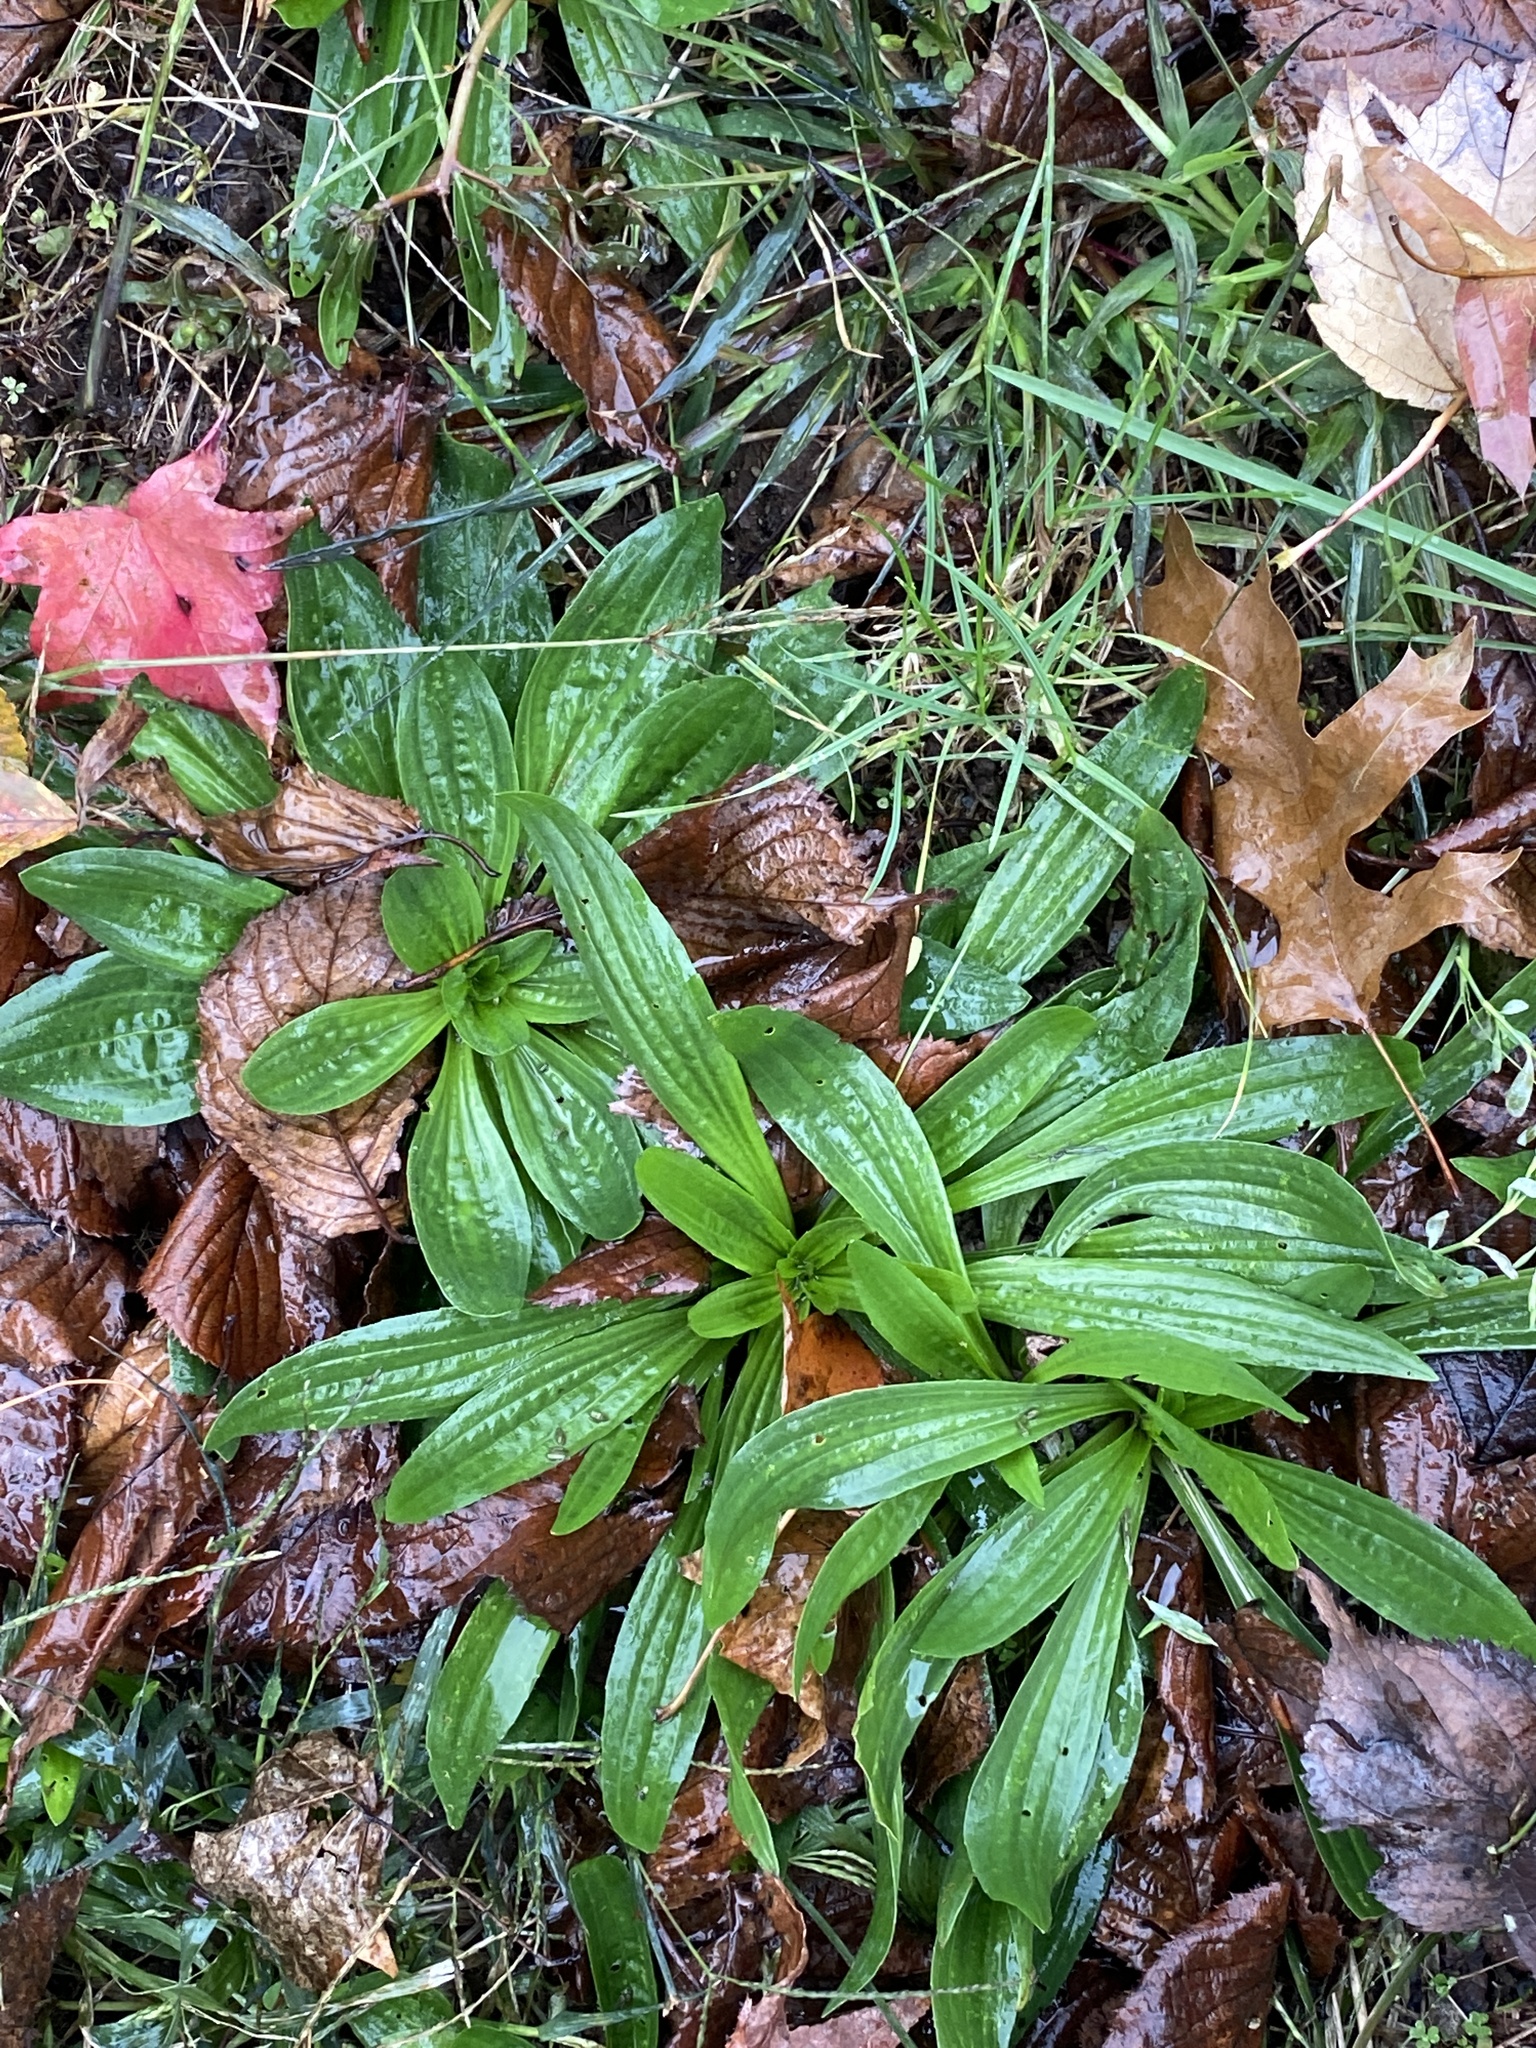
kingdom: Plantae
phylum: Tracheophyta
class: Magnoliopsida
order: Lamiales
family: Plantaginaceae
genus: Plantago
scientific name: Plantago lanceolata
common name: Ribwort plantain
